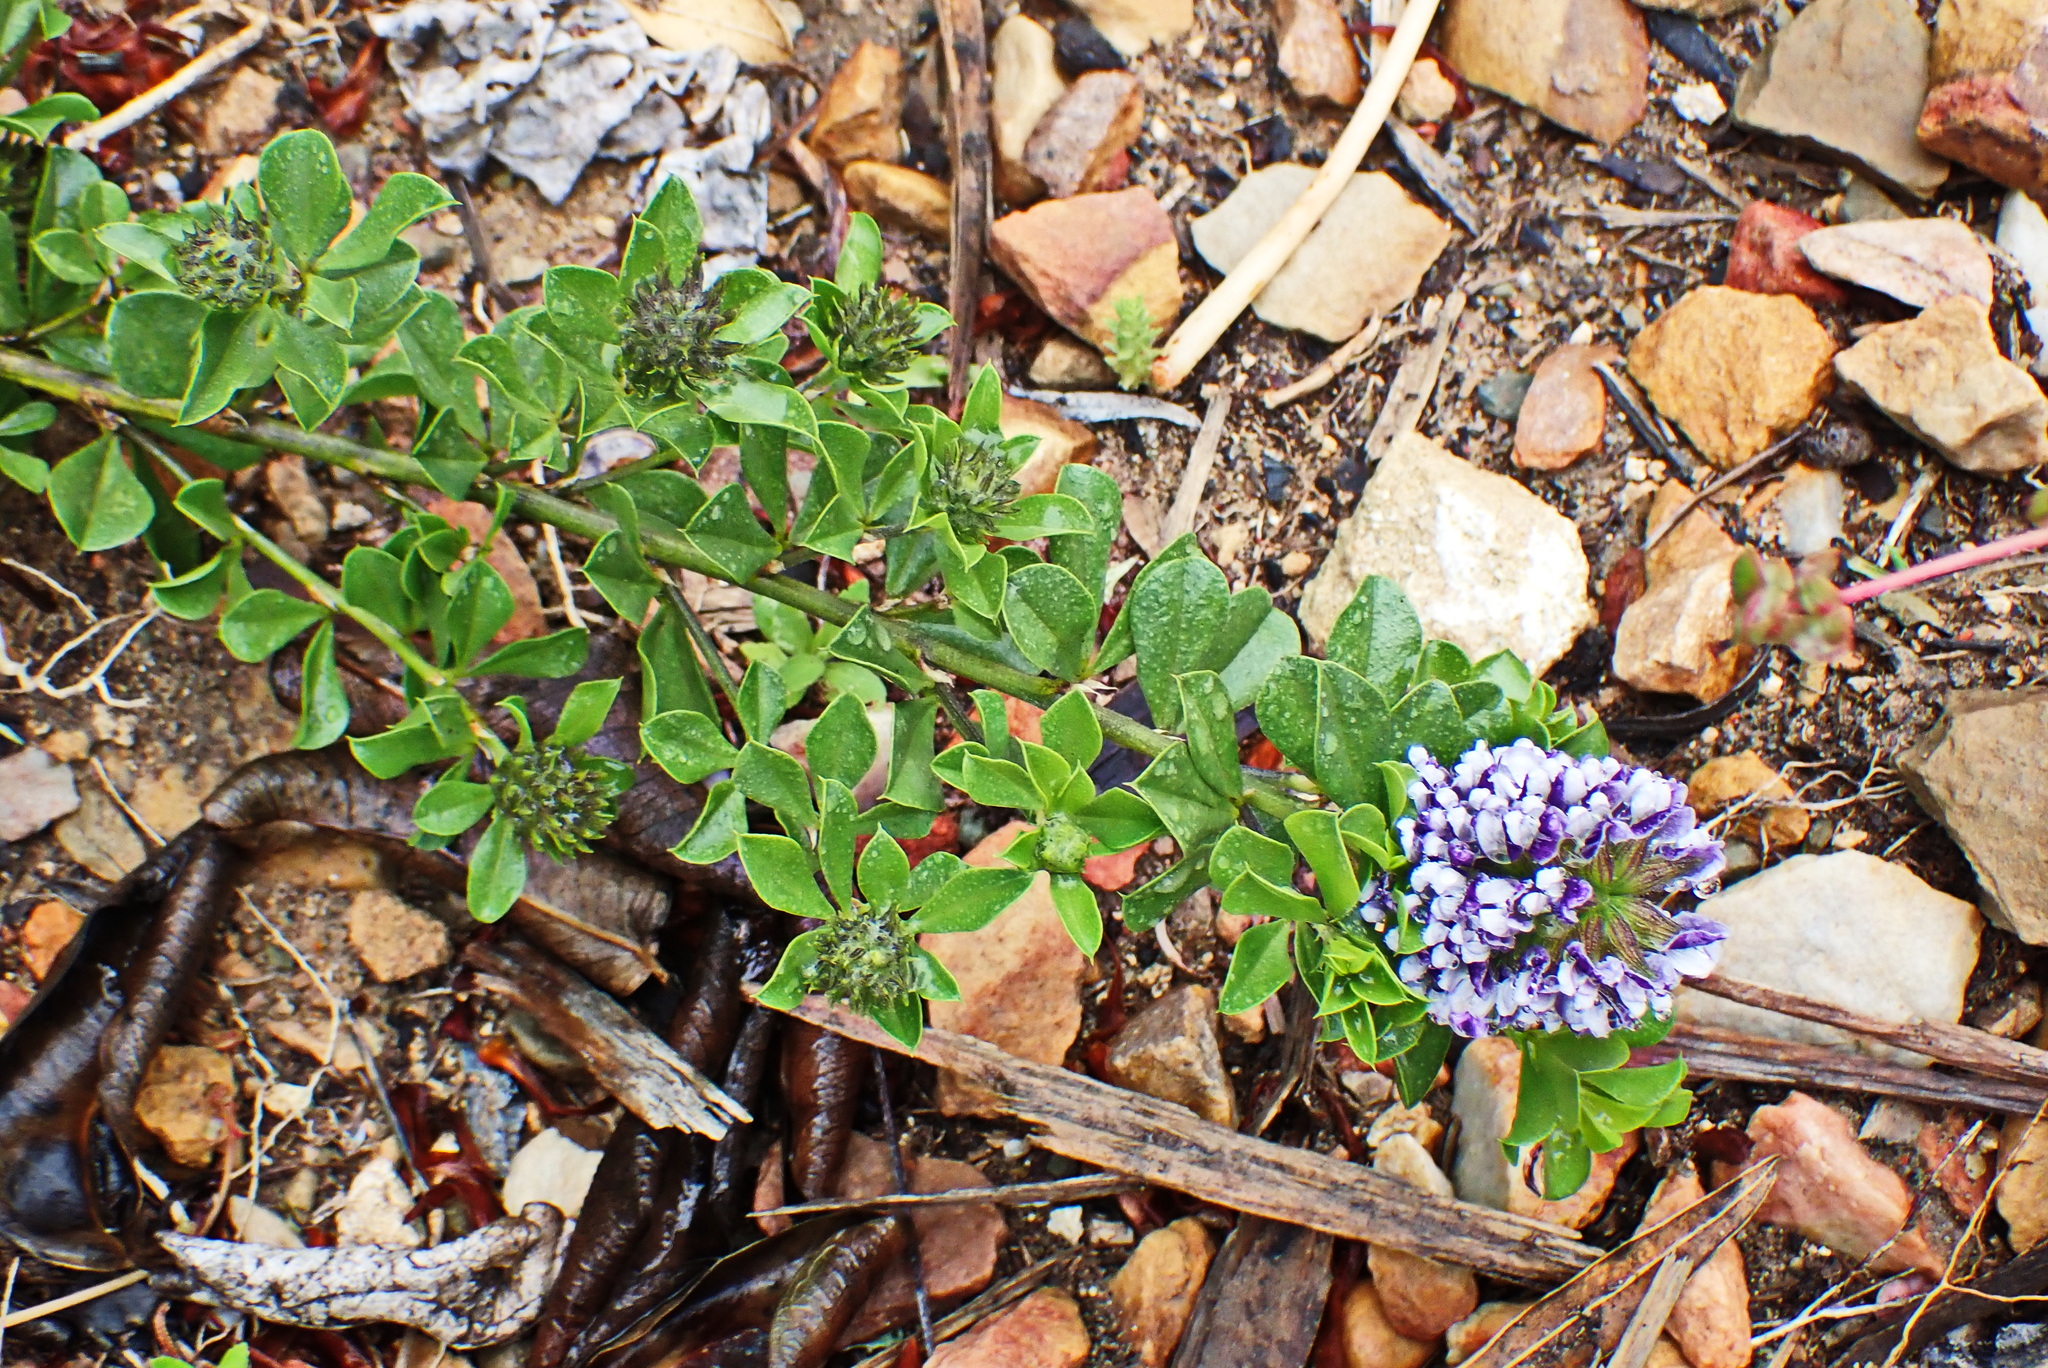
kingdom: Plantae
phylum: Tracheophyta
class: Magnoliopsida
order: Fabales
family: Fabaceae
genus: Psoralea
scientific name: Psoralea bracteolata
